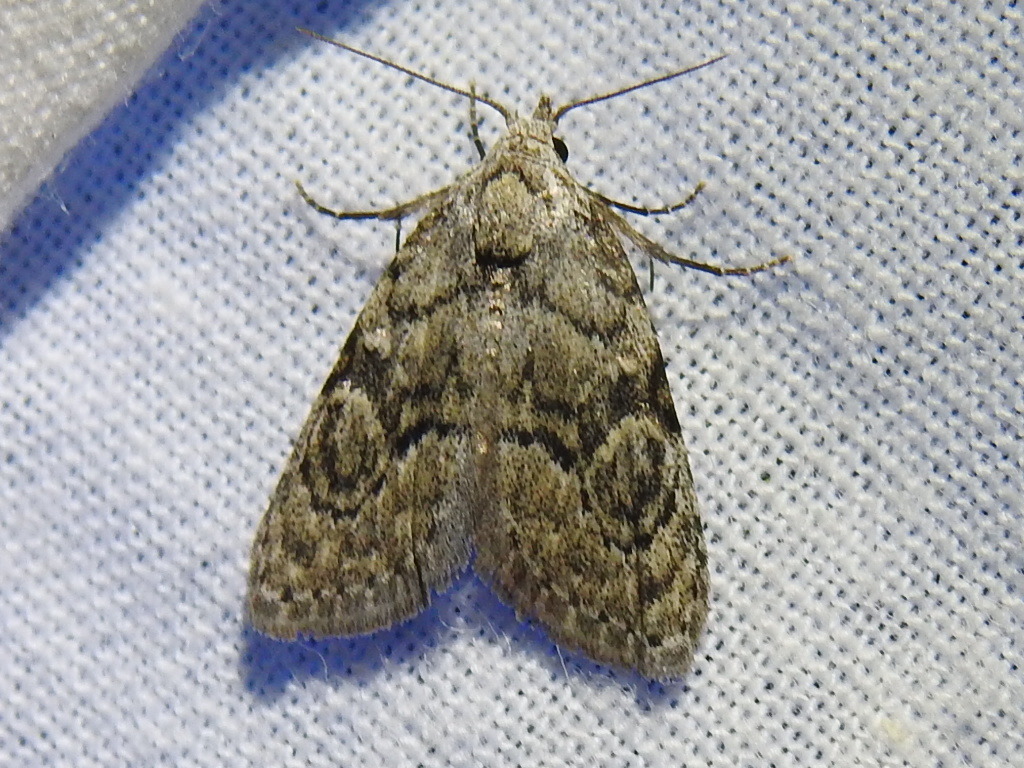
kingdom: Animalia
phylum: Arthropoda
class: Insecta
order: Lepidoptera
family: Nolidae
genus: Meganola
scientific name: Meganola minuscula
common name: Confused meganola moth
